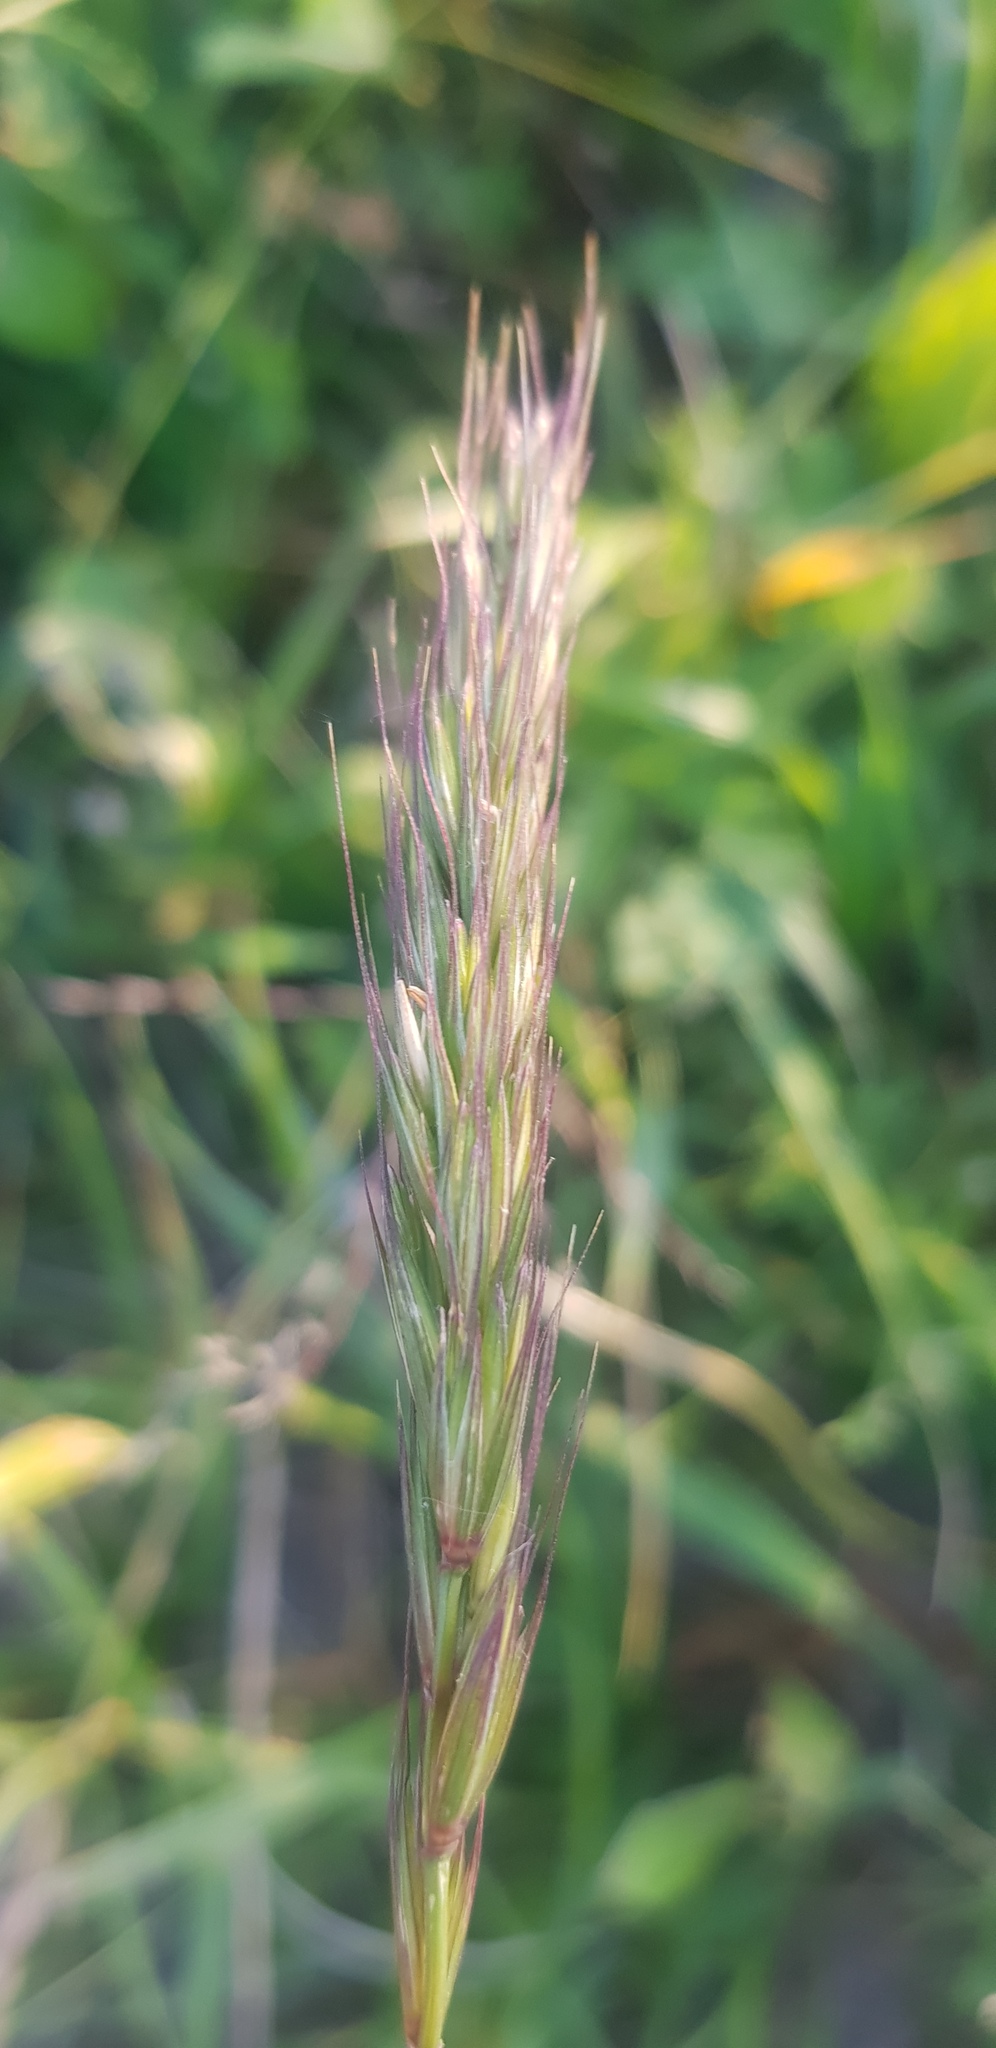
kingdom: Plantae
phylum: Tracheophyta
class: Liliopsida
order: Poales
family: Poaceae
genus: Elymus
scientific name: Elymus repens
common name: Quackgrass
